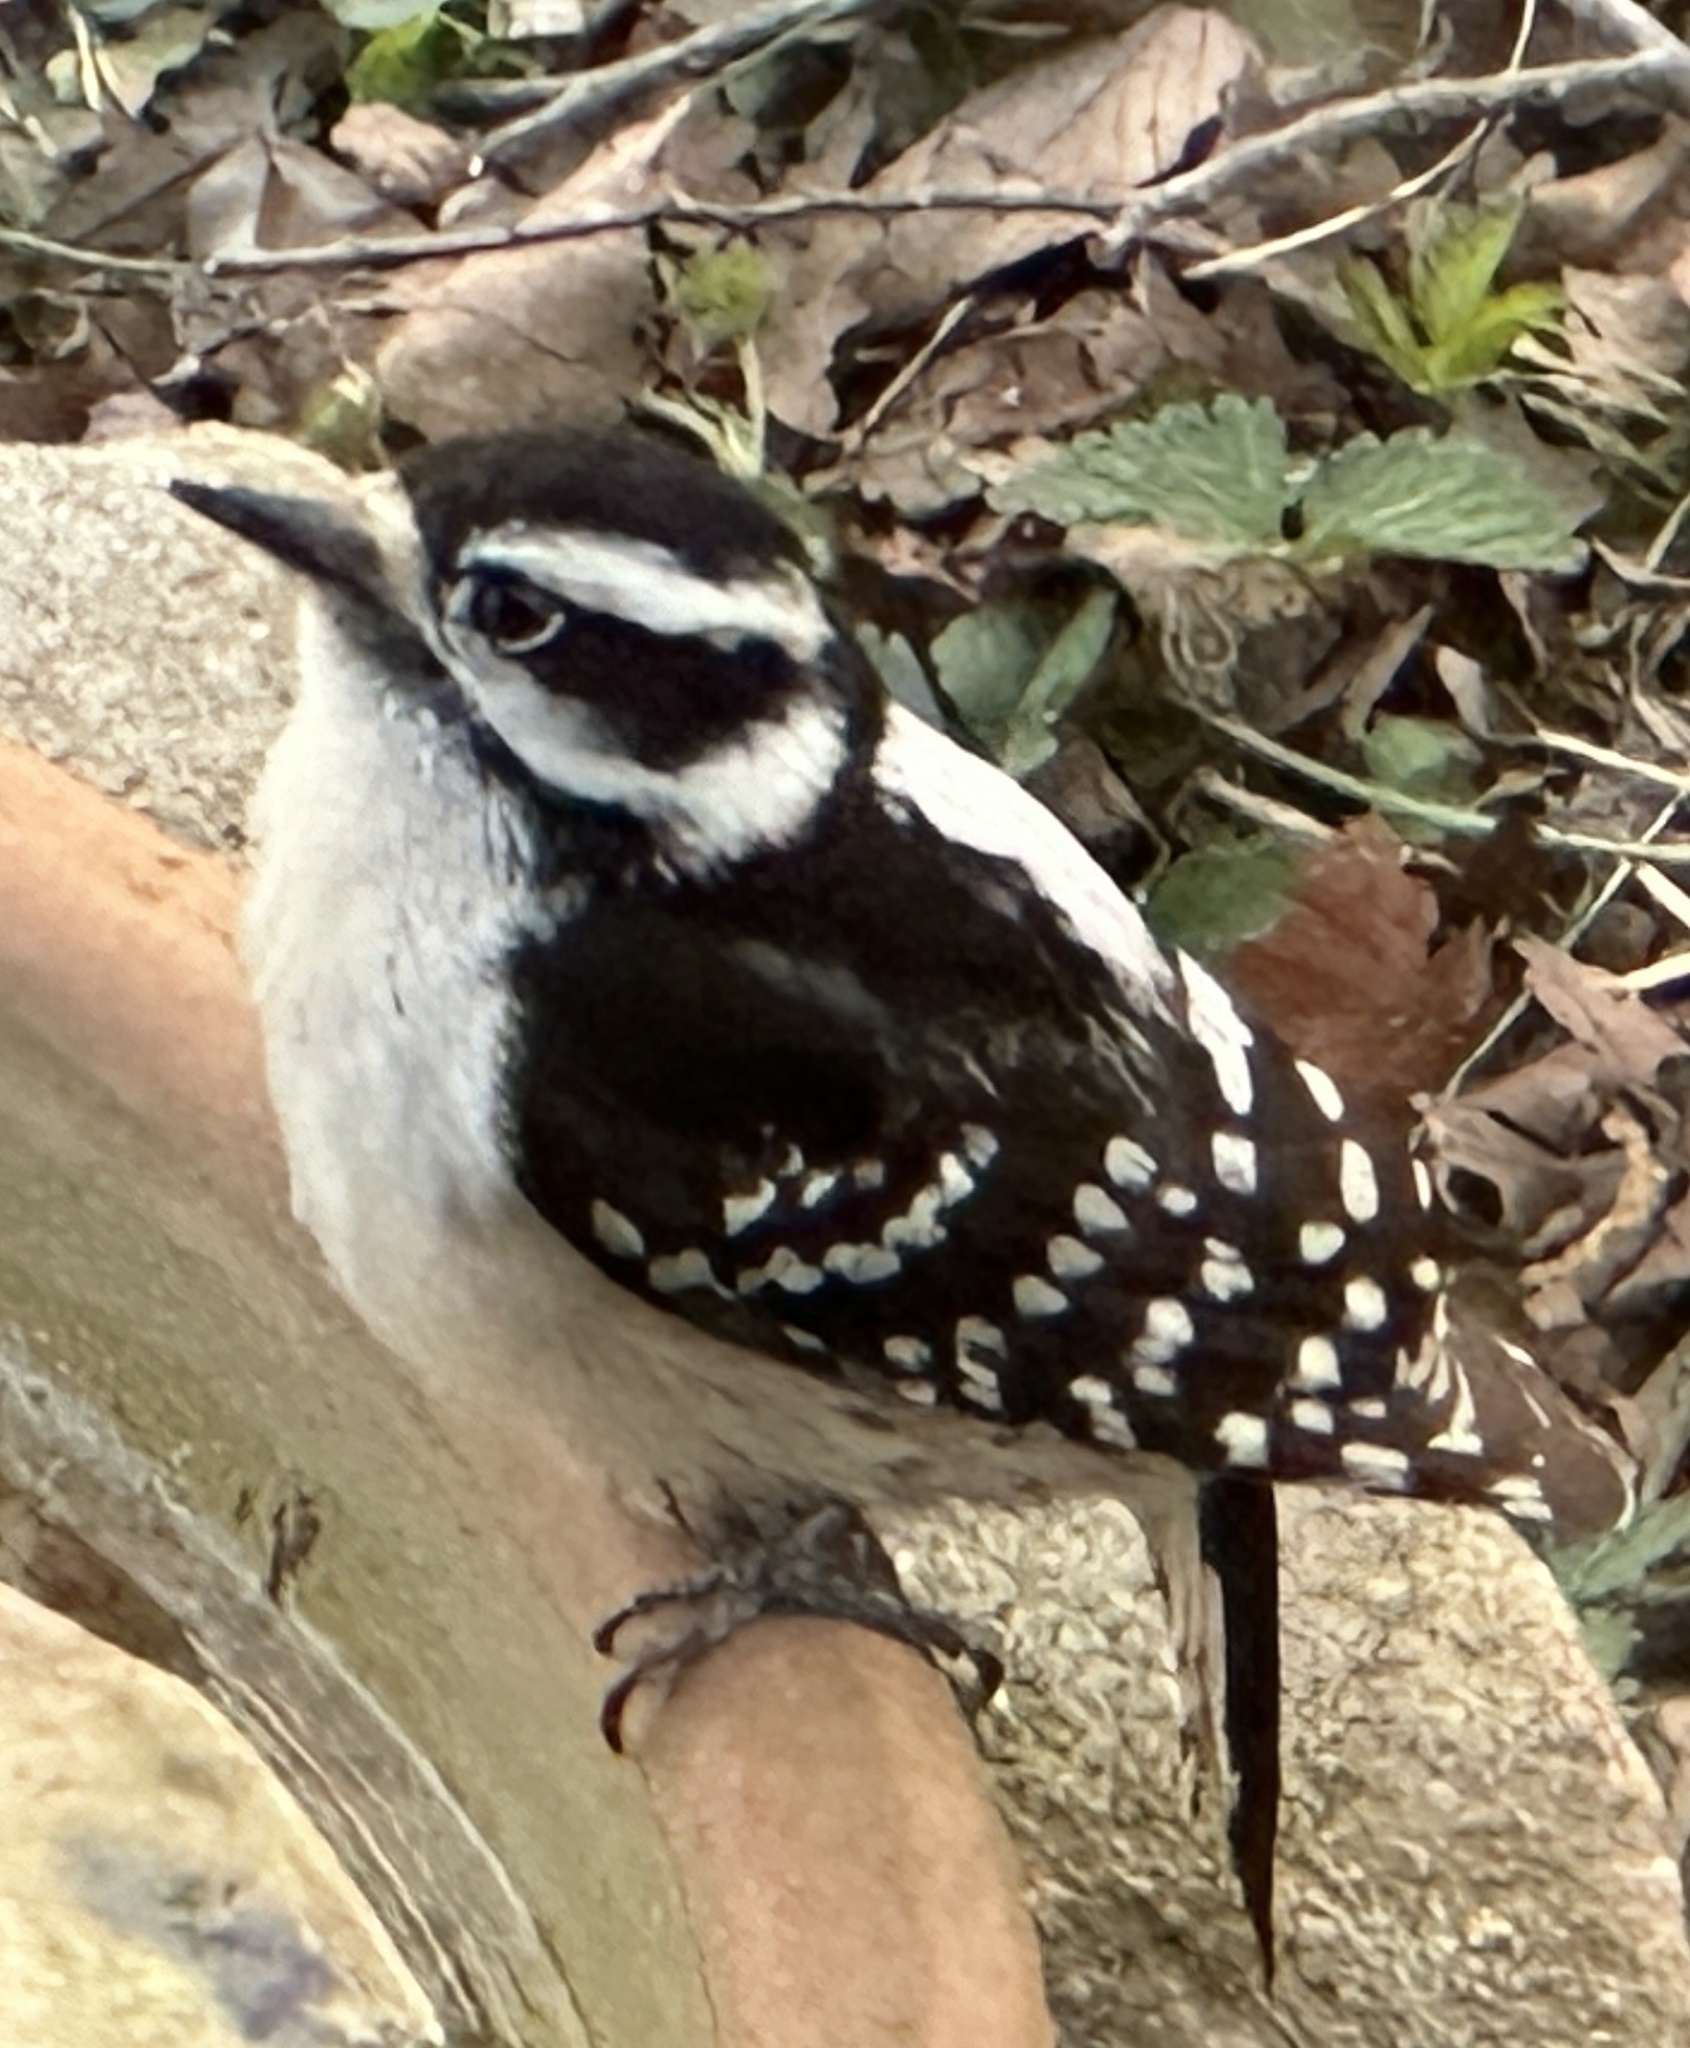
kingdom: Animalia
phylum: Chordata
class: Aves
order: Piciformes
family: Picidae
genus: Dryobates
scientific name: Dryobates pubescens
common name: Downy woodpecker
